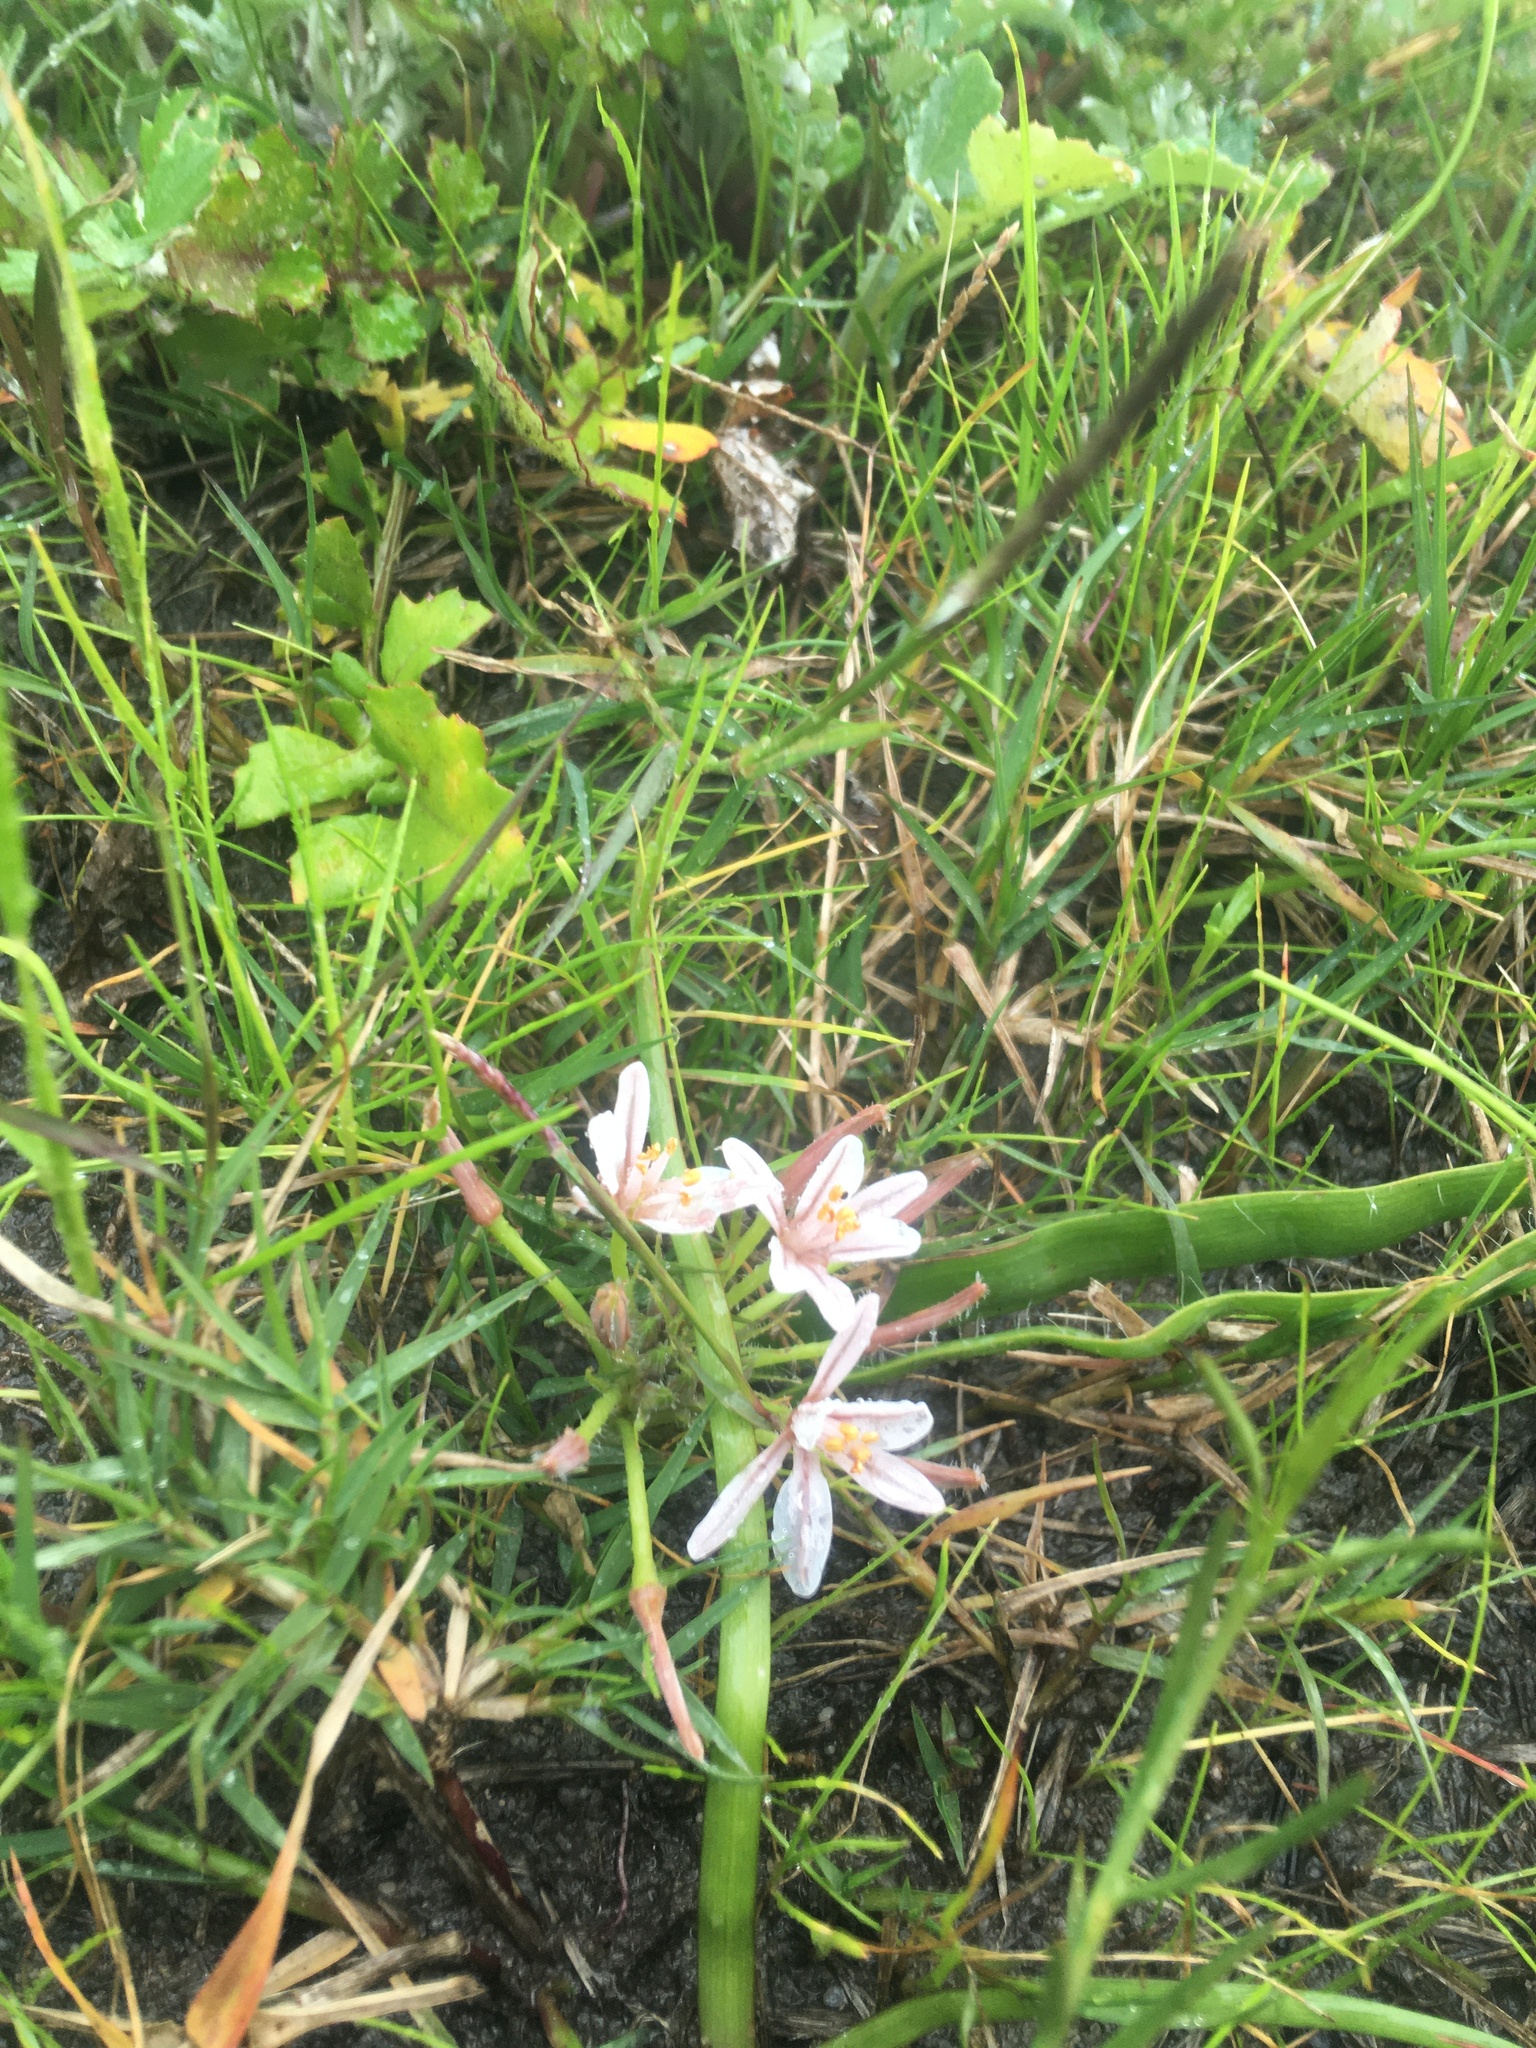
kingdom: Plantae
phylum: Tracheophyta
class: Liliopsida
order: Asparagales
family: Asphodelaceae
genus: Trachyandra
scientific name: Trachyandra hispida
